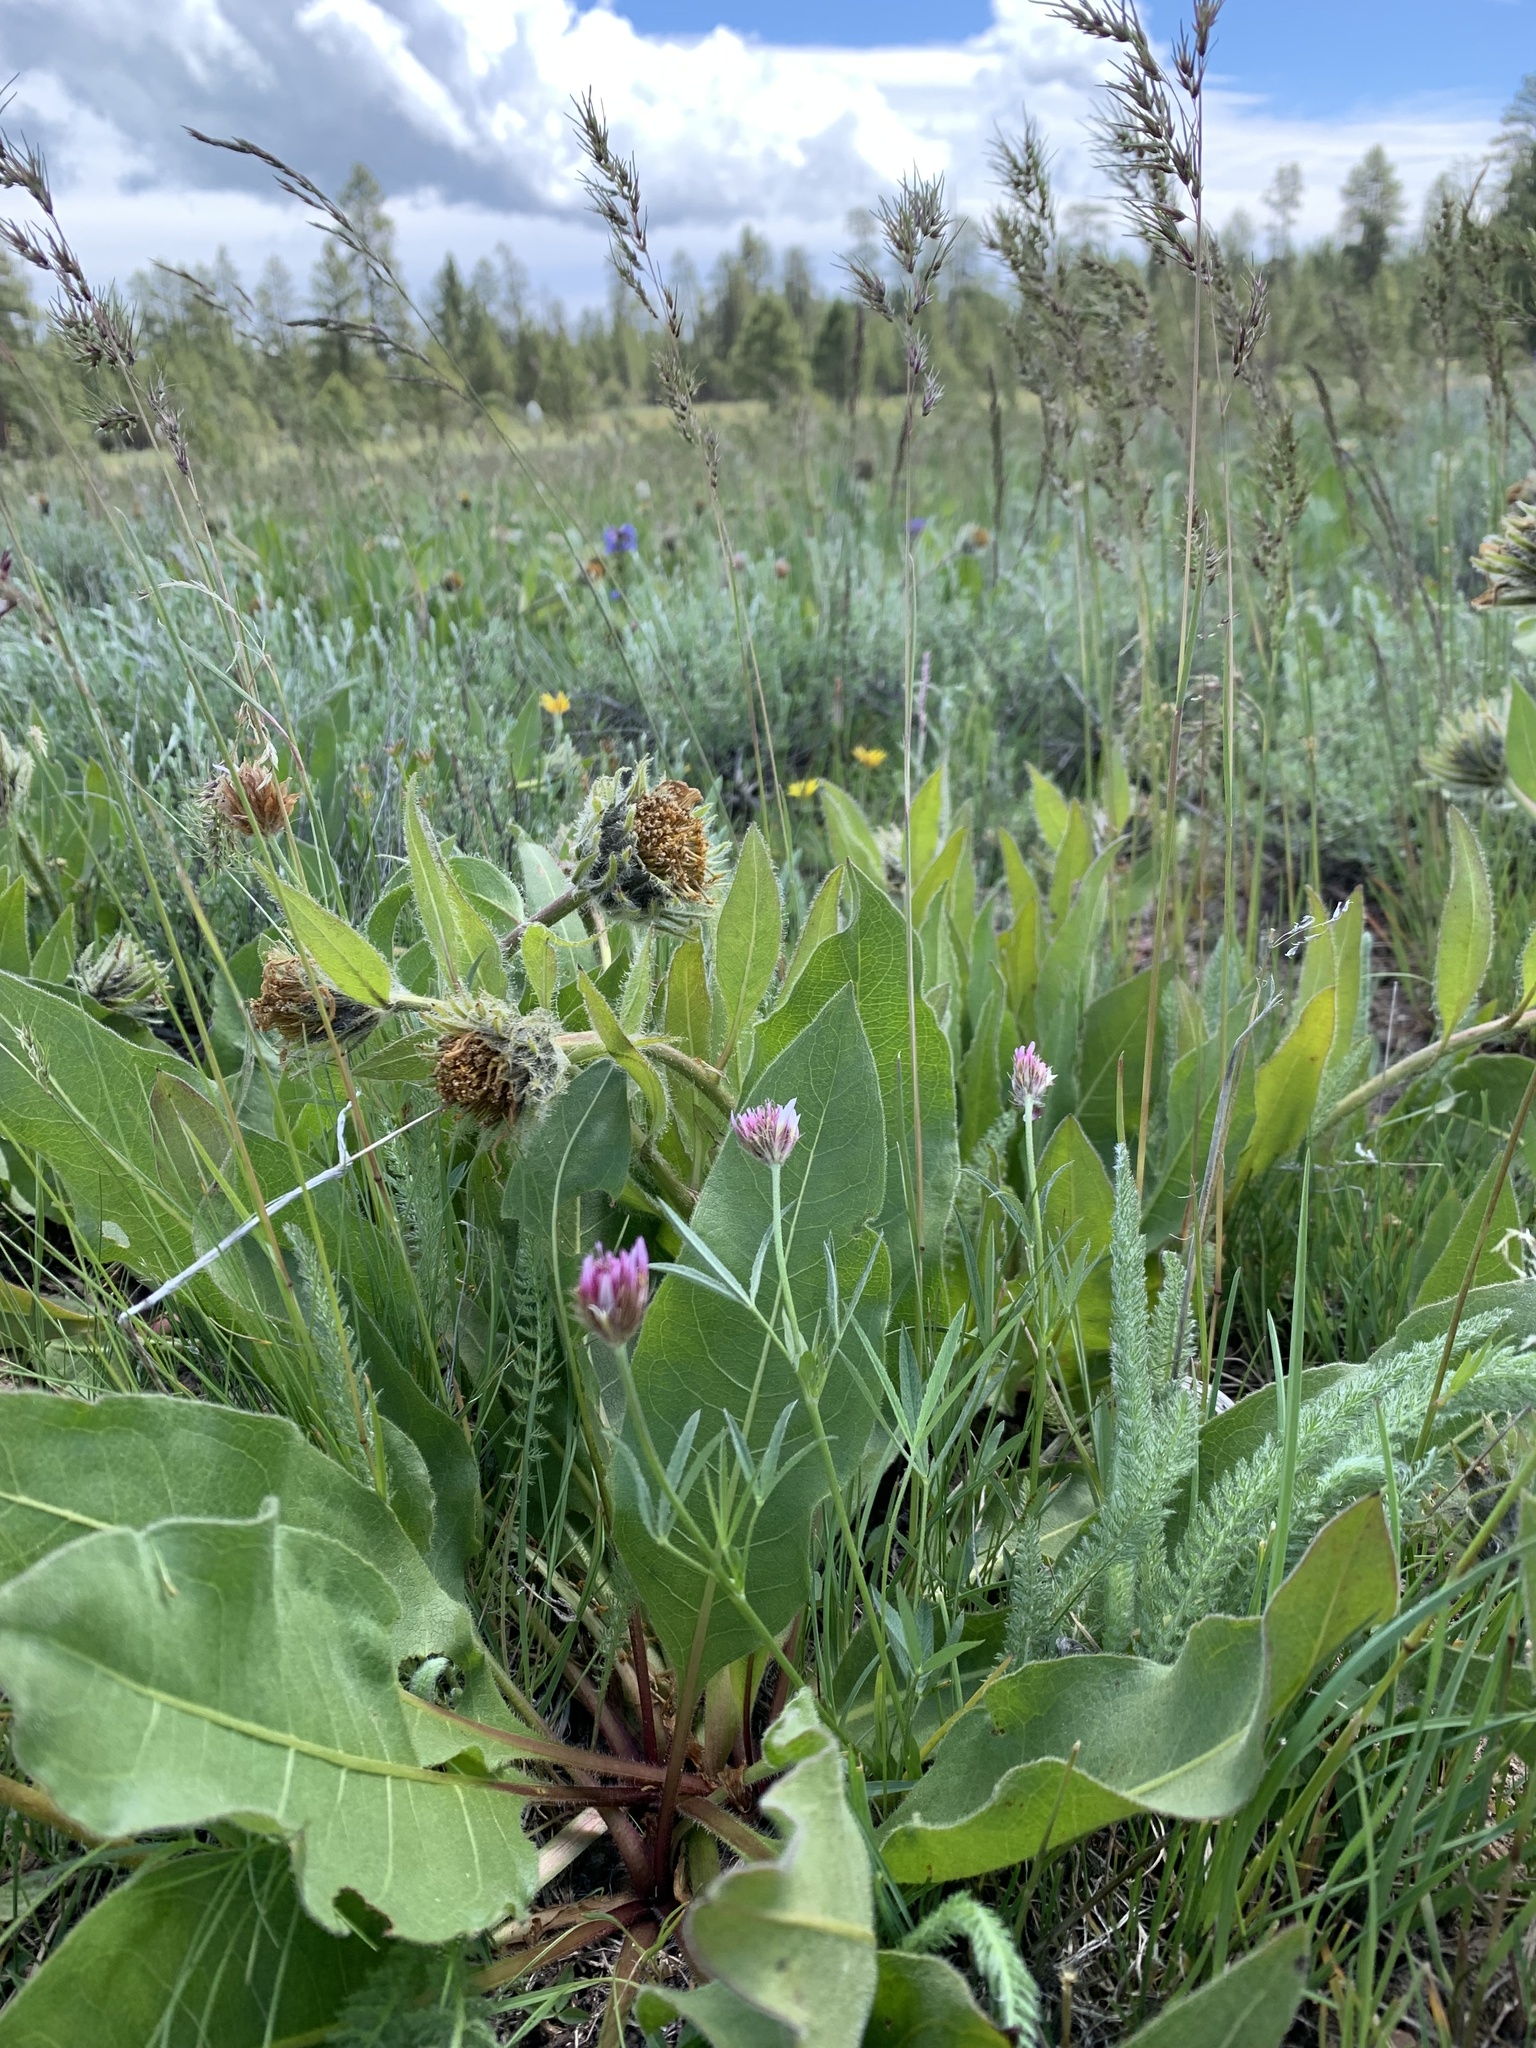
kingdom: Plantae
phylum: Tracheophyta
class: Magnoliopsida
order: Fabales
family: Fabaceae
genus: Trifolium
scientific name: Trifolium longipes
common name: Long-stalk clover
